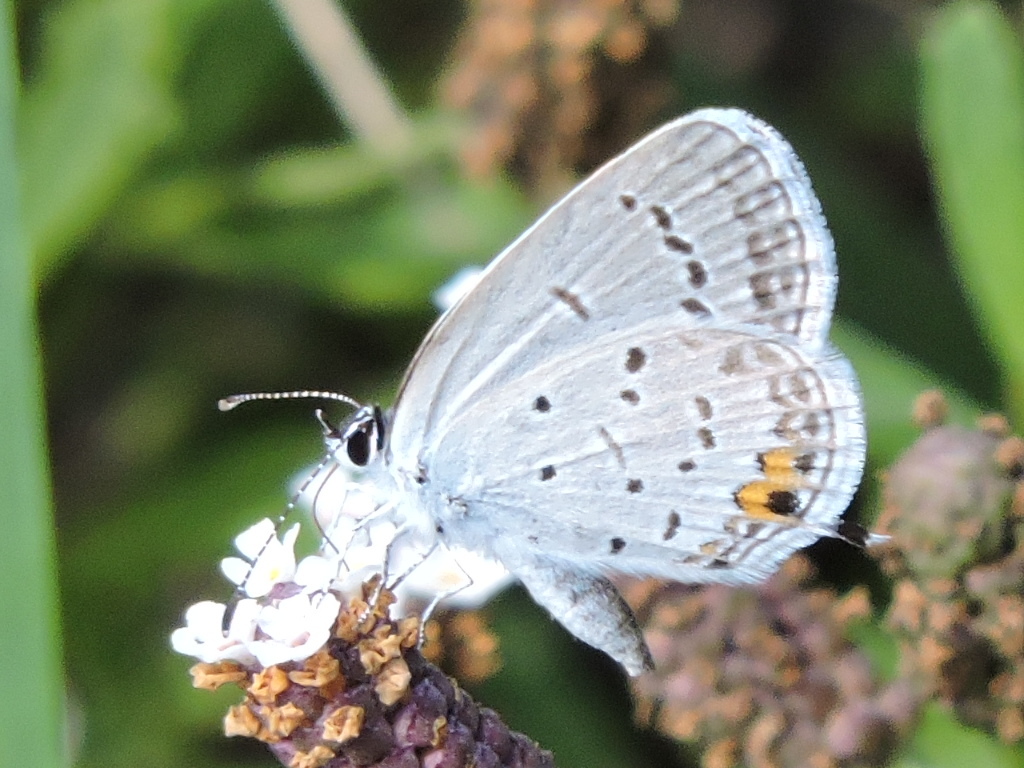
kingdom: Animalia
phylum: Arthropoda
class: Insecta
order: Lepidoptera
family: Lycaenidae
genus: Elkalyce
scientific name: Elkalyce comyntas
